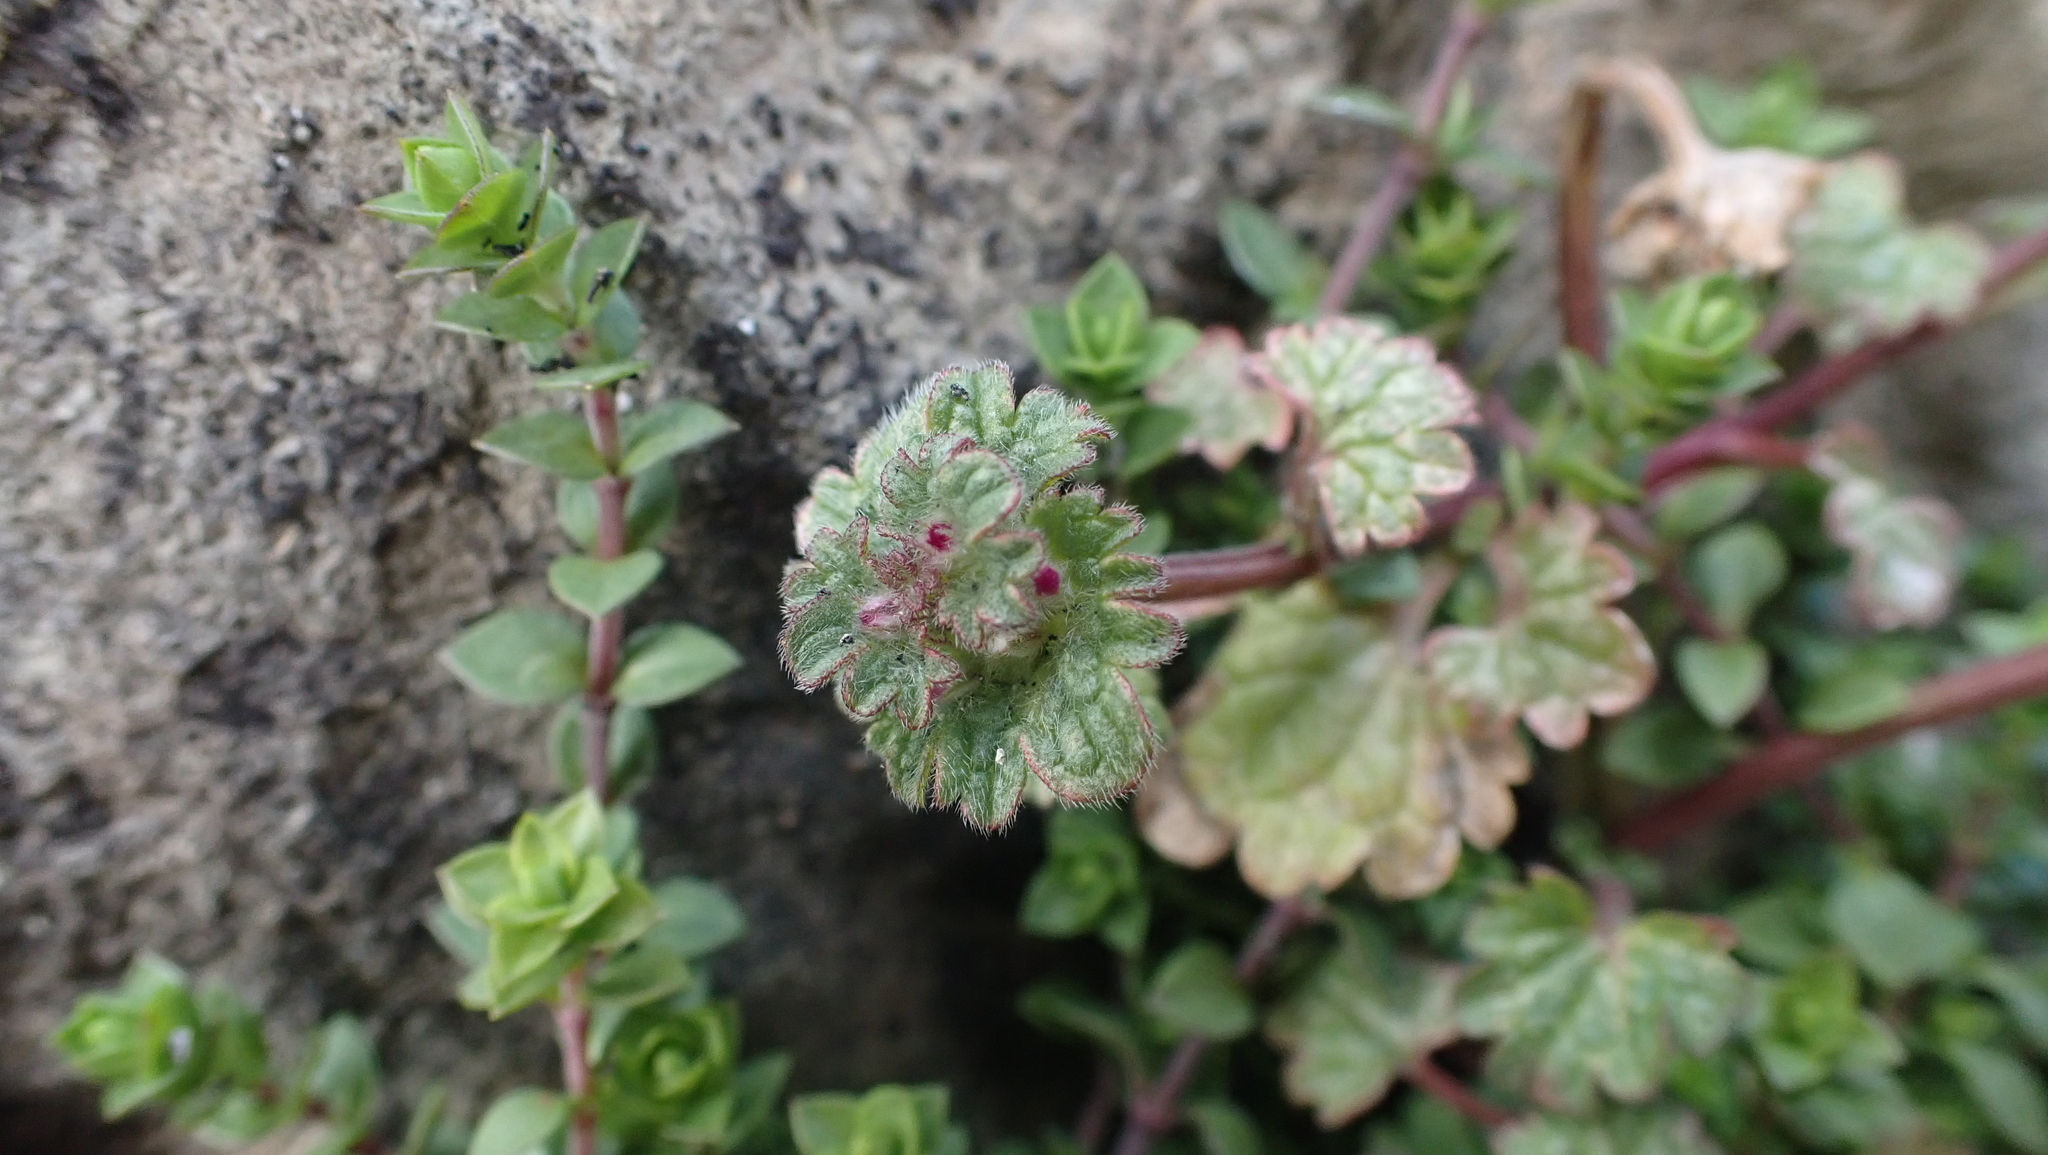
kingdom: Plantae
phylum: Tracheophyta
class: Magnoliopsida
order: Lamiales
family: Lamiaceae
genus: Lamium
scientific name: Lamium amplexicaule
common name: Henbit dead-nettle
